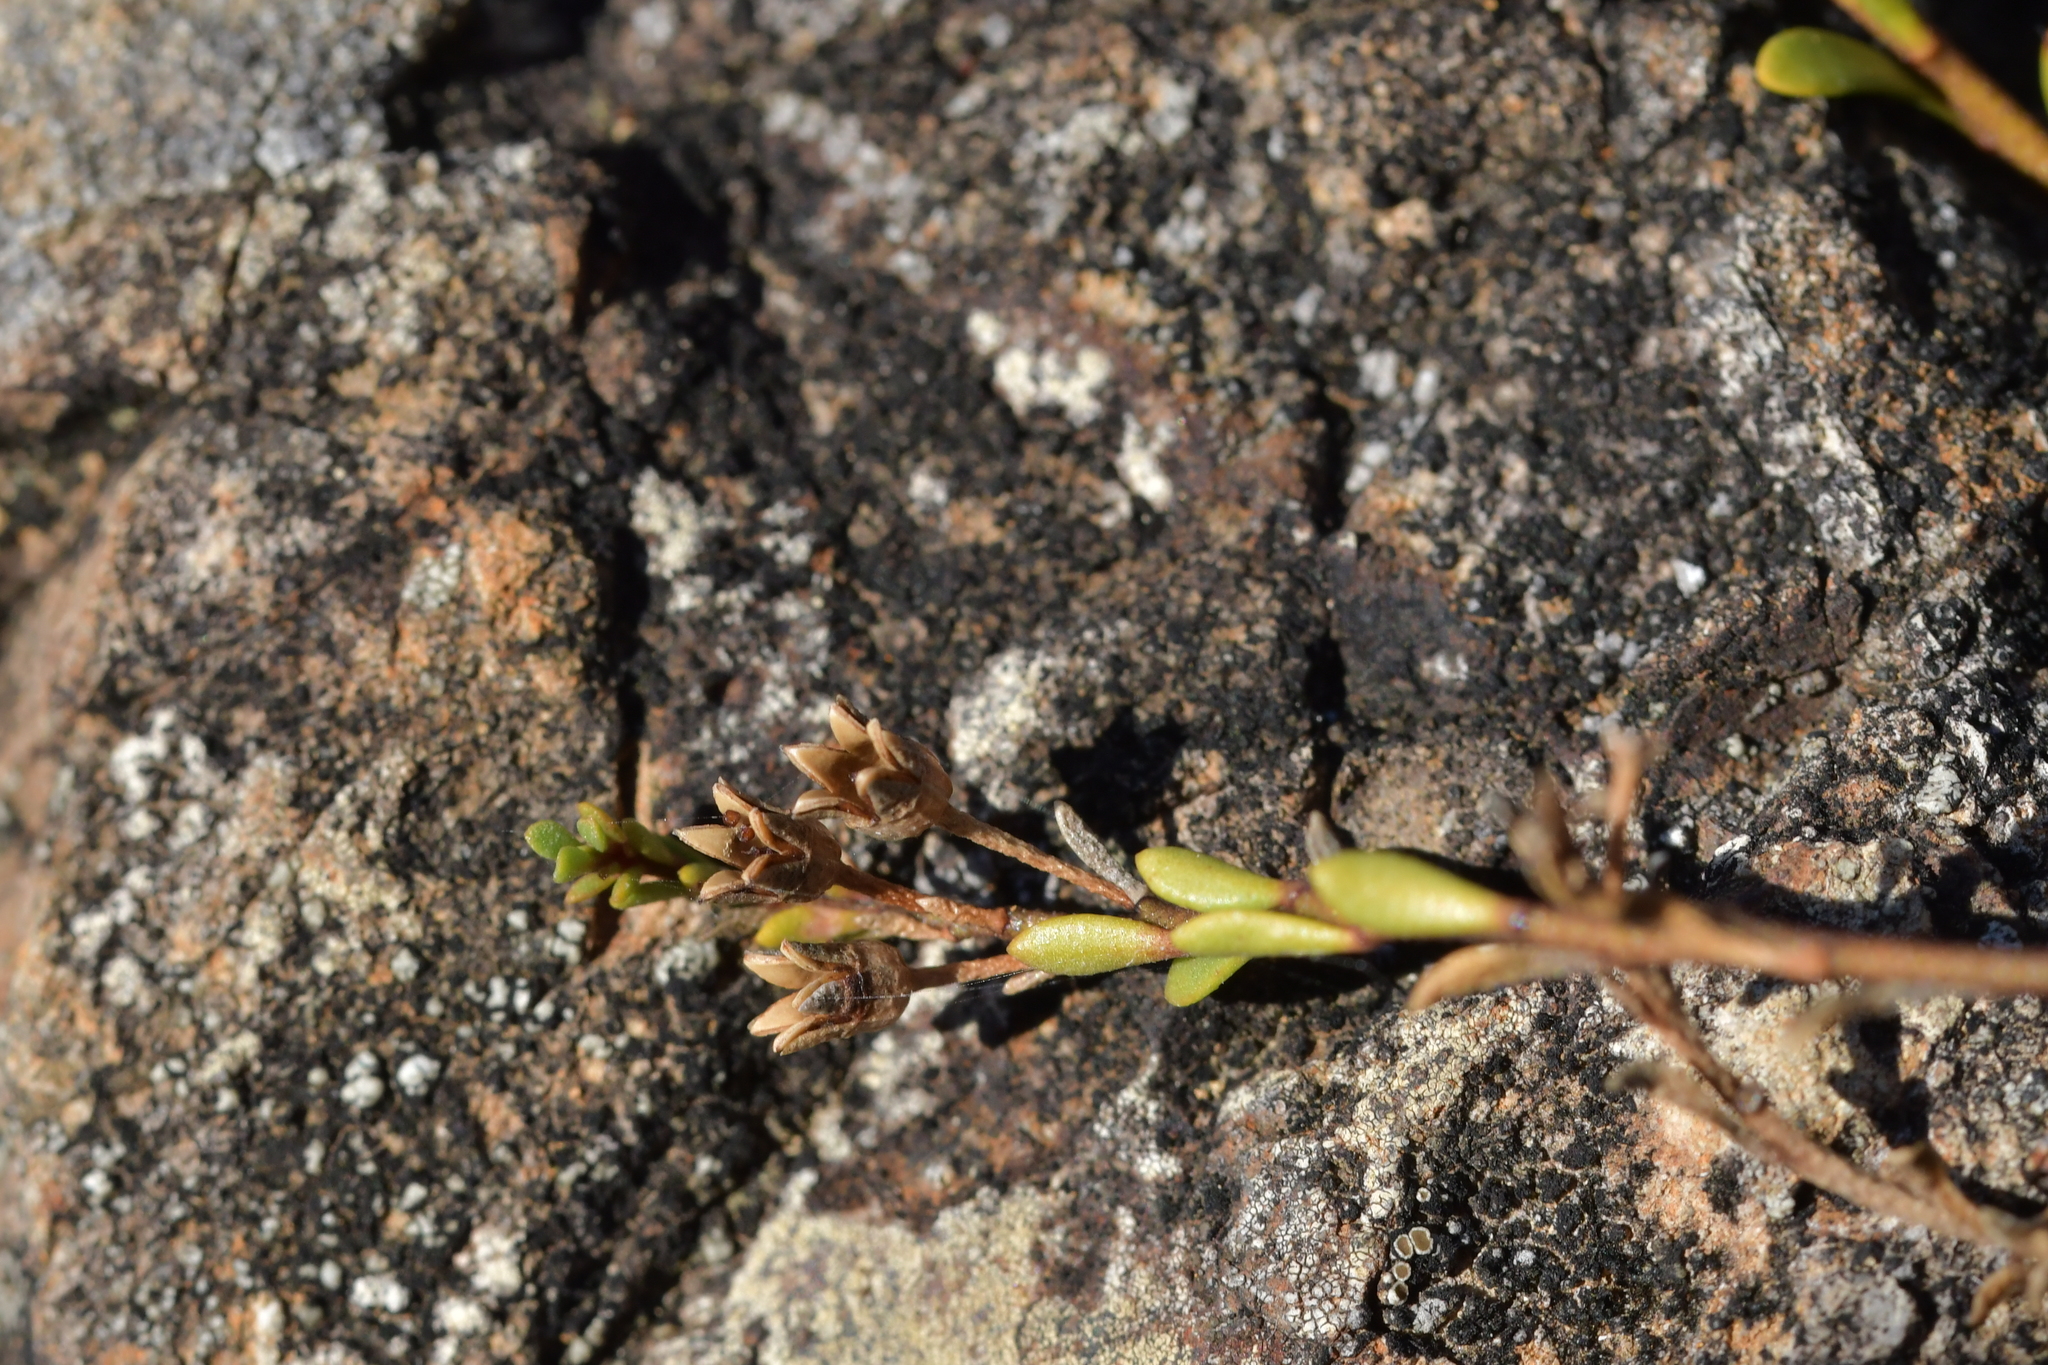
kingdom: Plantae
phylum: Tracheophyta
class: Magnoliopsida
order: Ericales
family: Primulaceae
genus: Samolus
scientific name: Samolus repens
